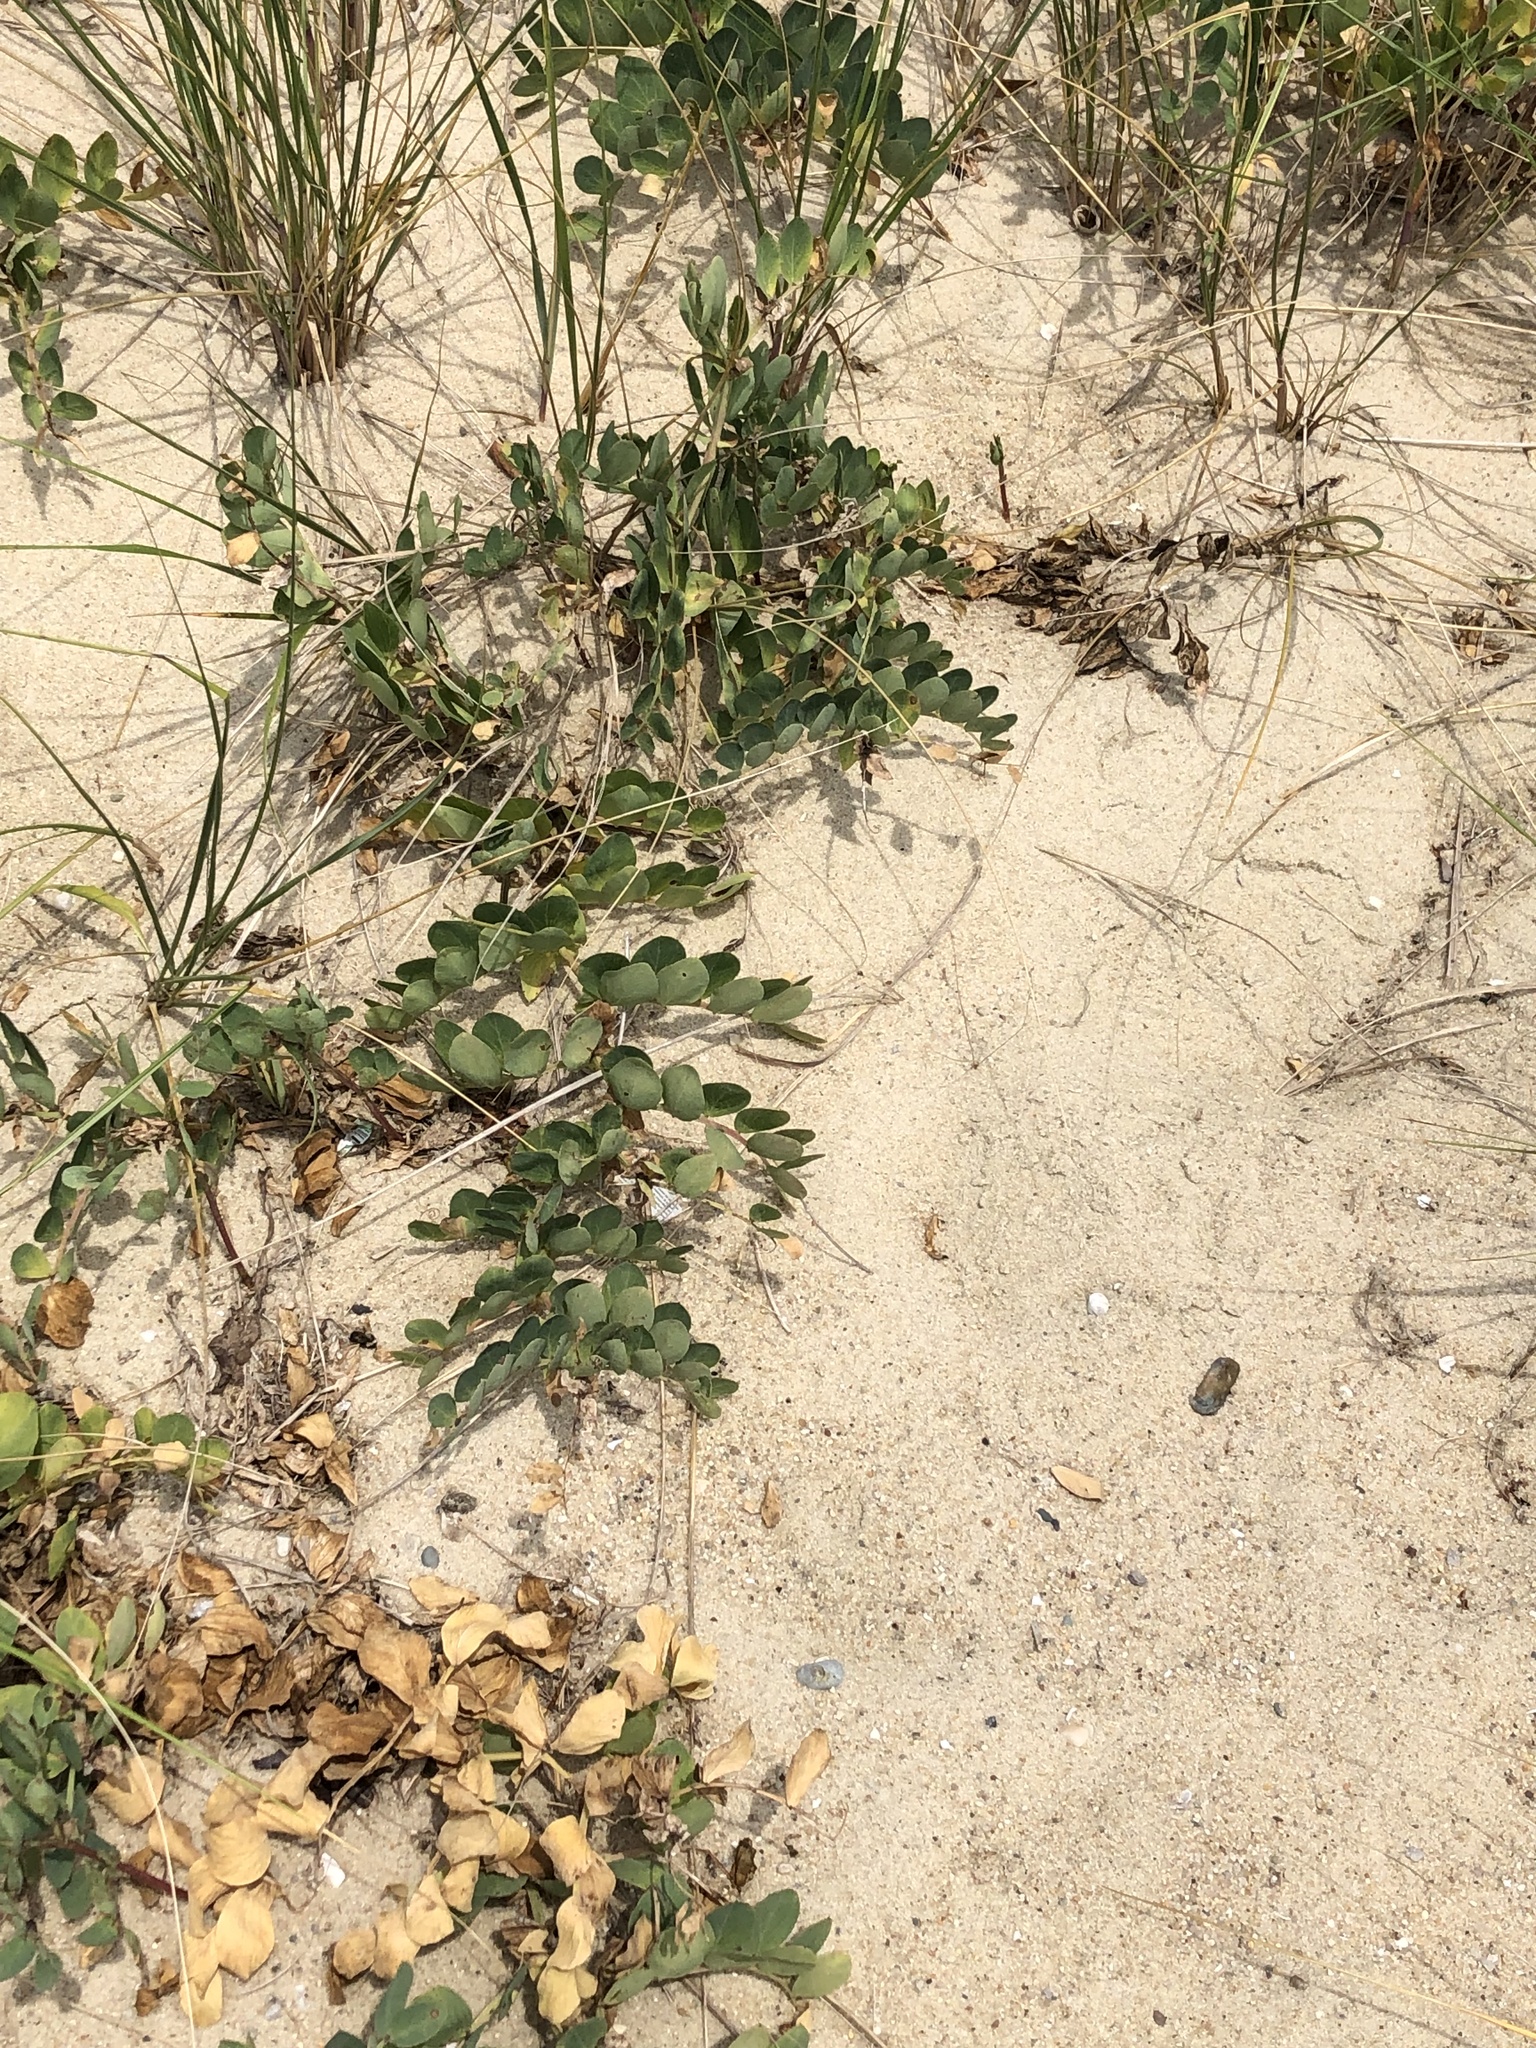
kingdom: Plantae
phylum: Tracheophyta
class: Magnoliopsida
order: Fabales
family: Fabaceae
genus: Lathyrus
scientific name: Lathyrus japonicus
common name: Sea pea
